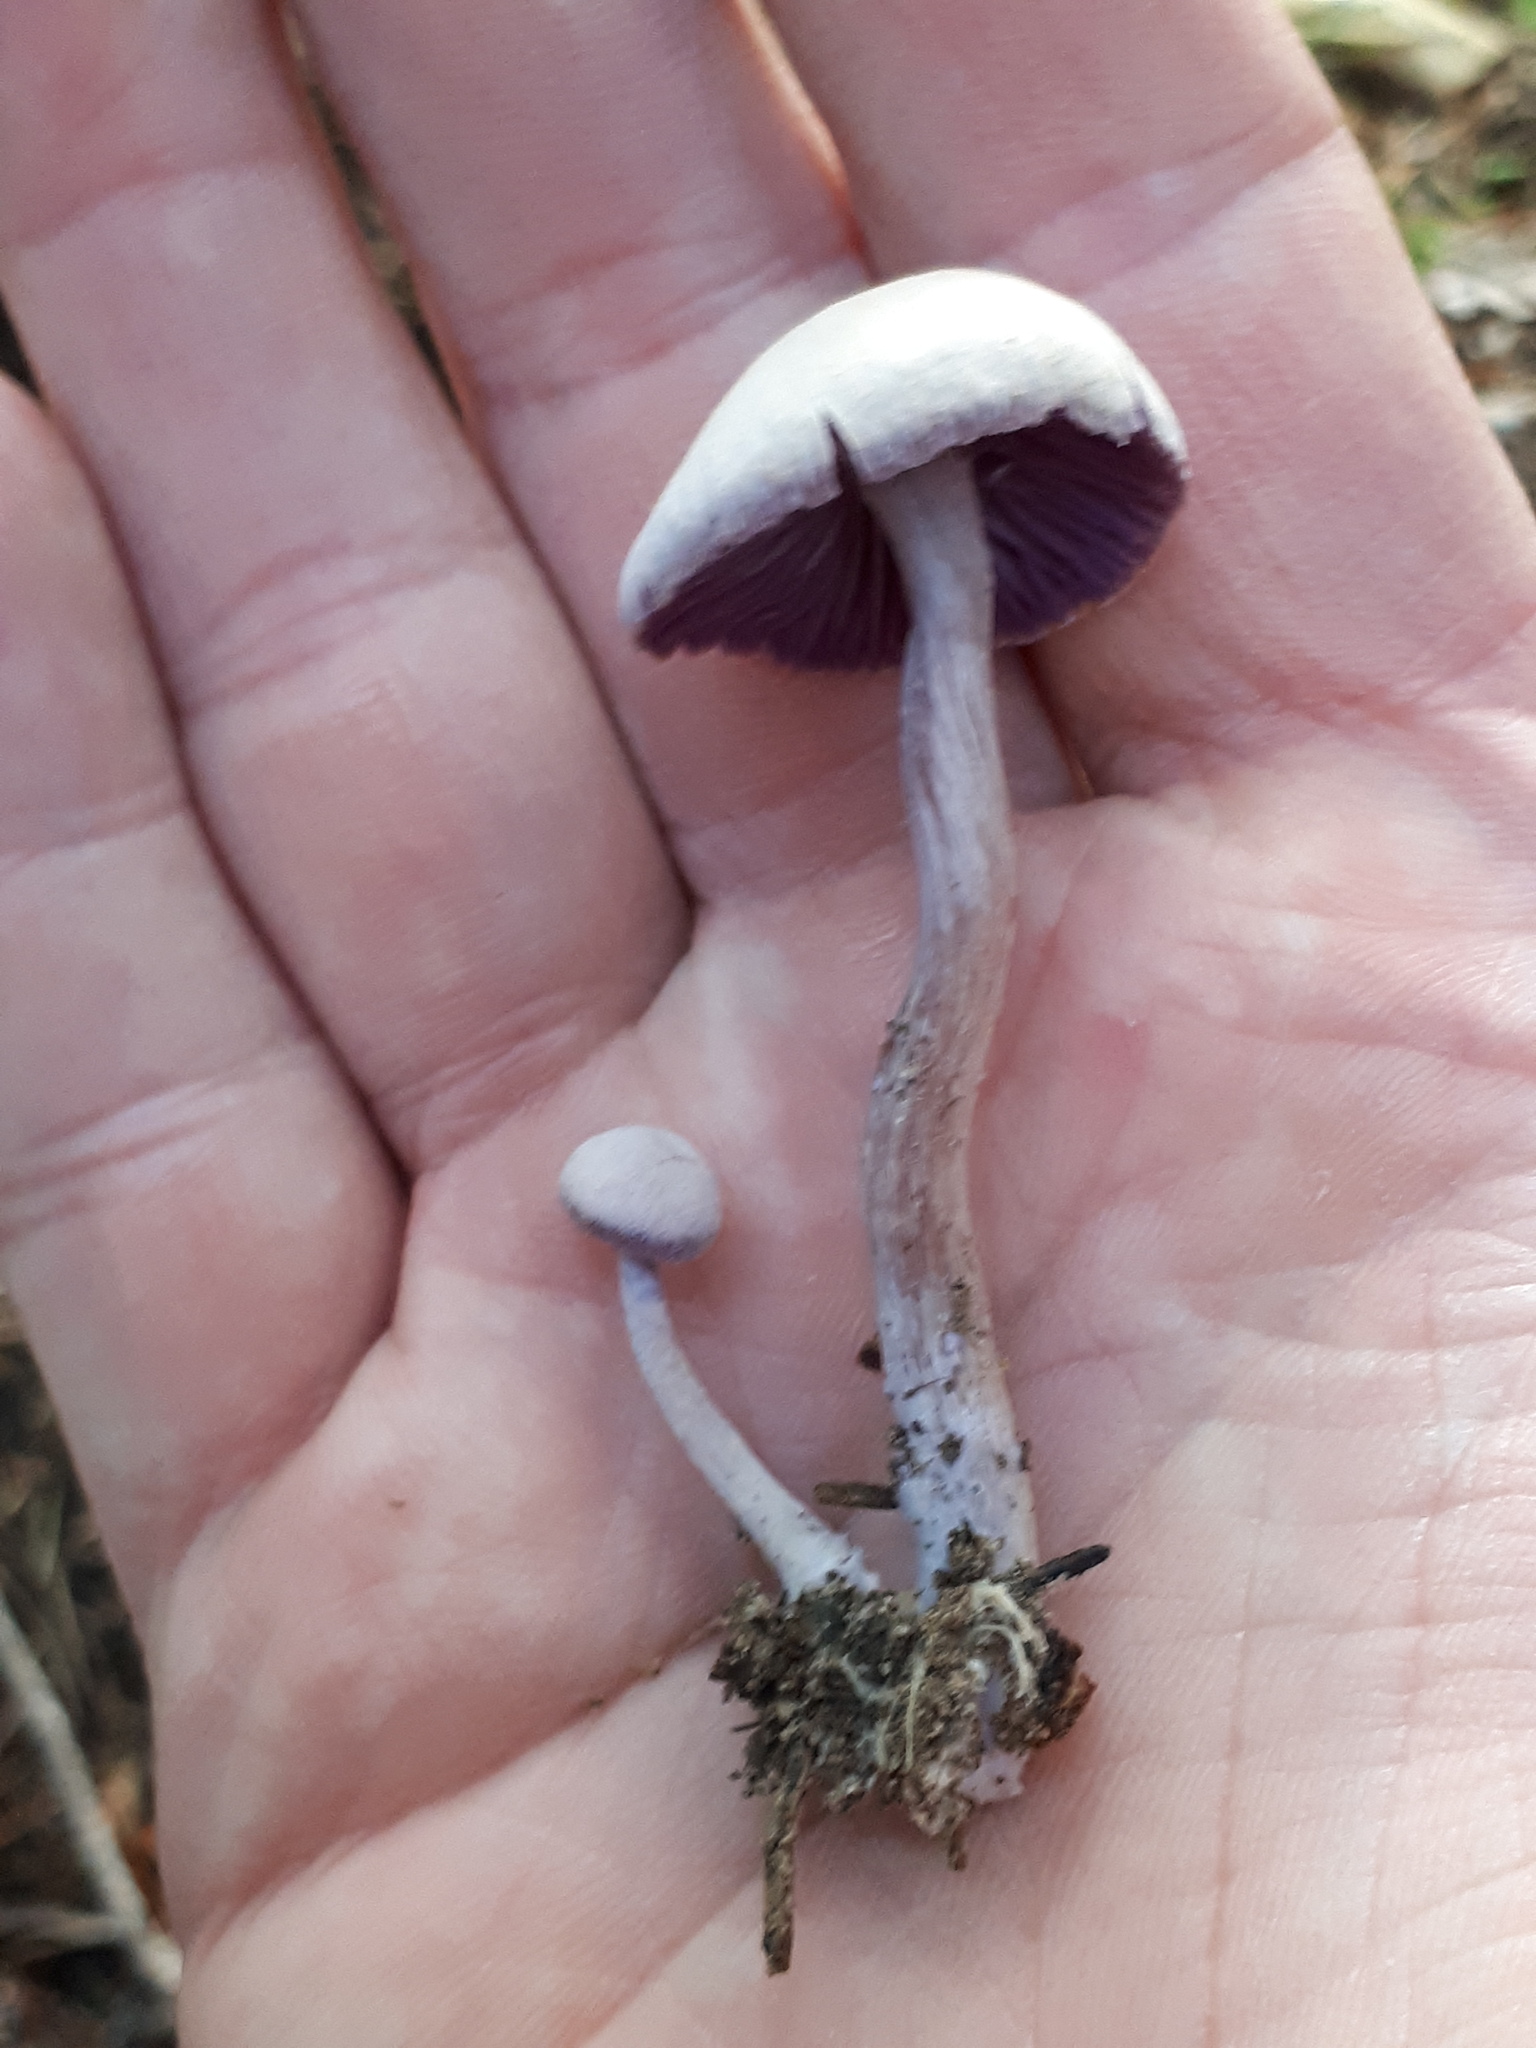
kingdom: Fungi
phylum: Basidiomycota
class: Agaricomycetes
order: Agaricales
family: Hydnangiaceae
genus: Laccaria
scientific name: Laccaria amethystina
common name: Amethyst deceiver
